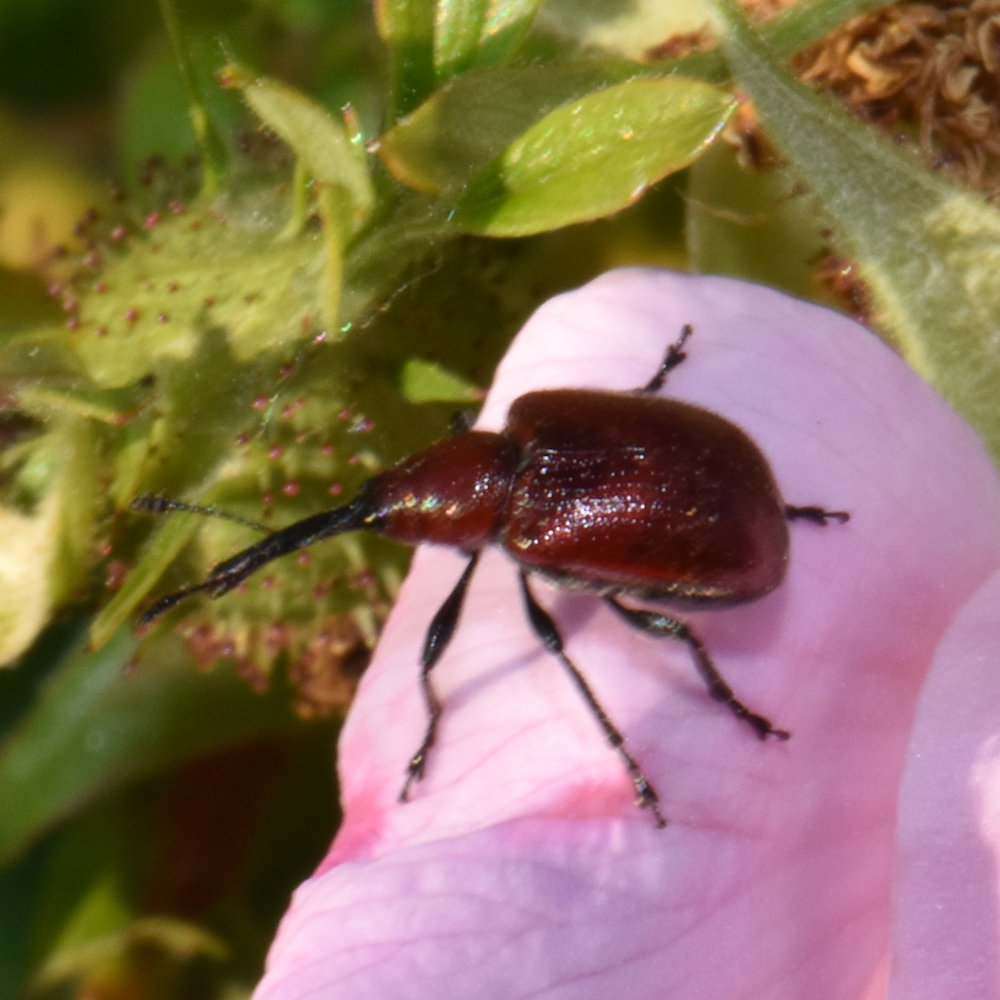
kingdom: Animalia
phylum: Arthropoda
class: Insecta
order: Coleoptera
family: Attelabidae
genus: Merhynchites
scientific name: Merhynchites bicolor
